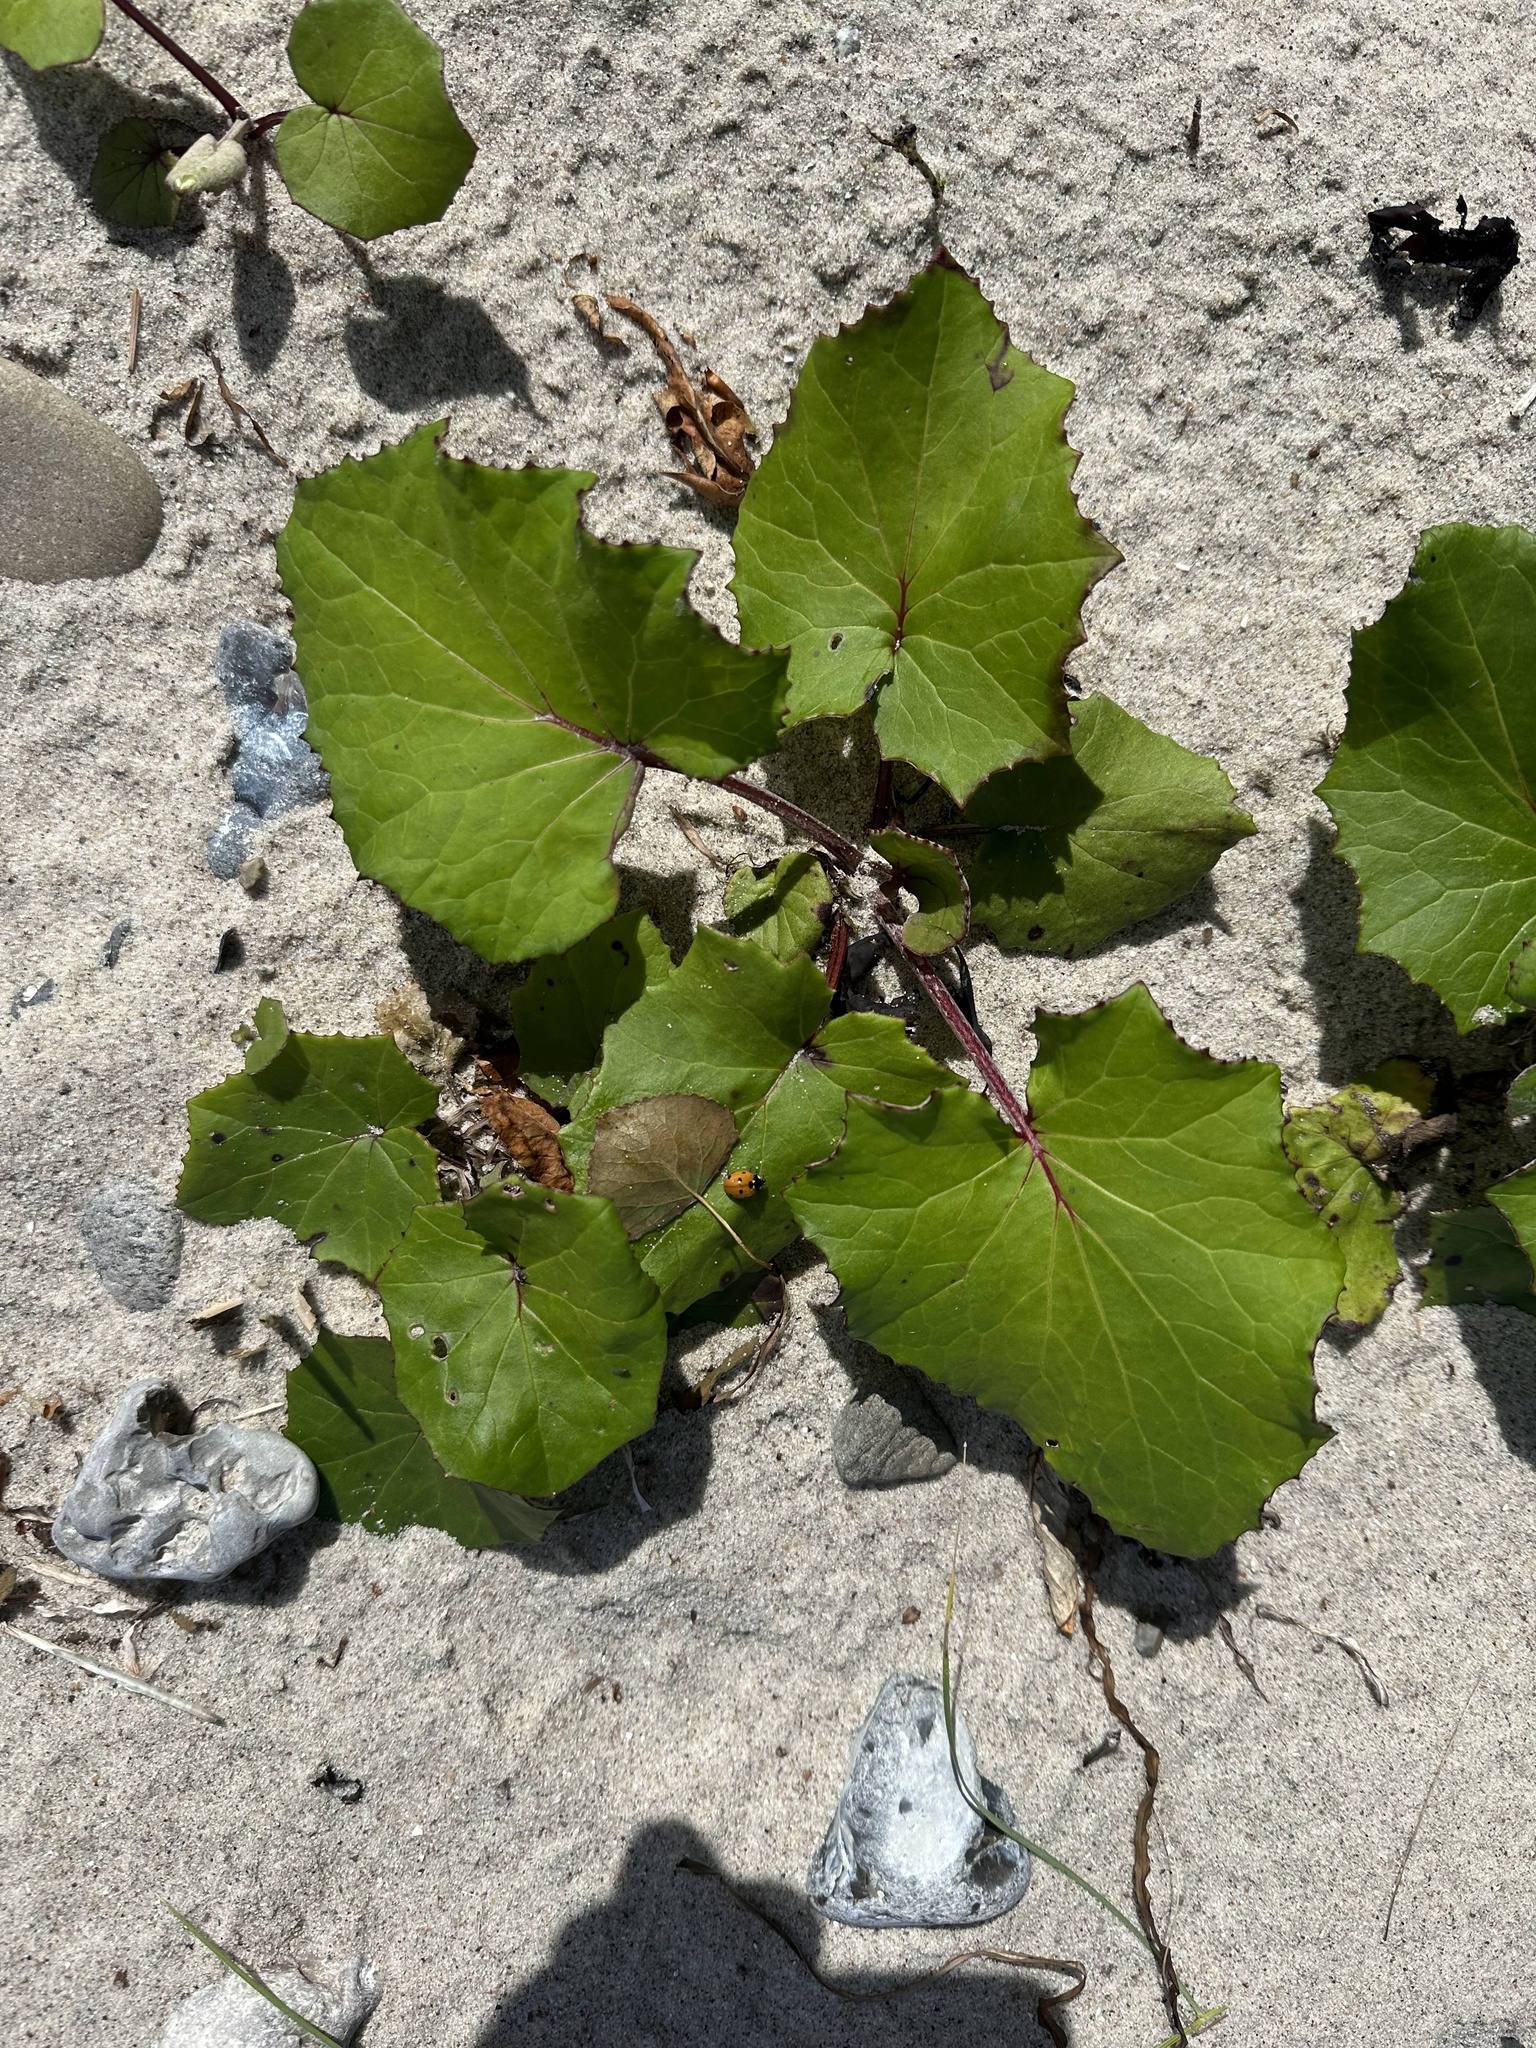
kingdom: Plantae
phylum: Tracheophyta
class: Magnoliopsida
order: Asterales
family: Asteraceae
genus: Tussilago
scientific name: Tussilago farfara
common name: Coltsfoot
